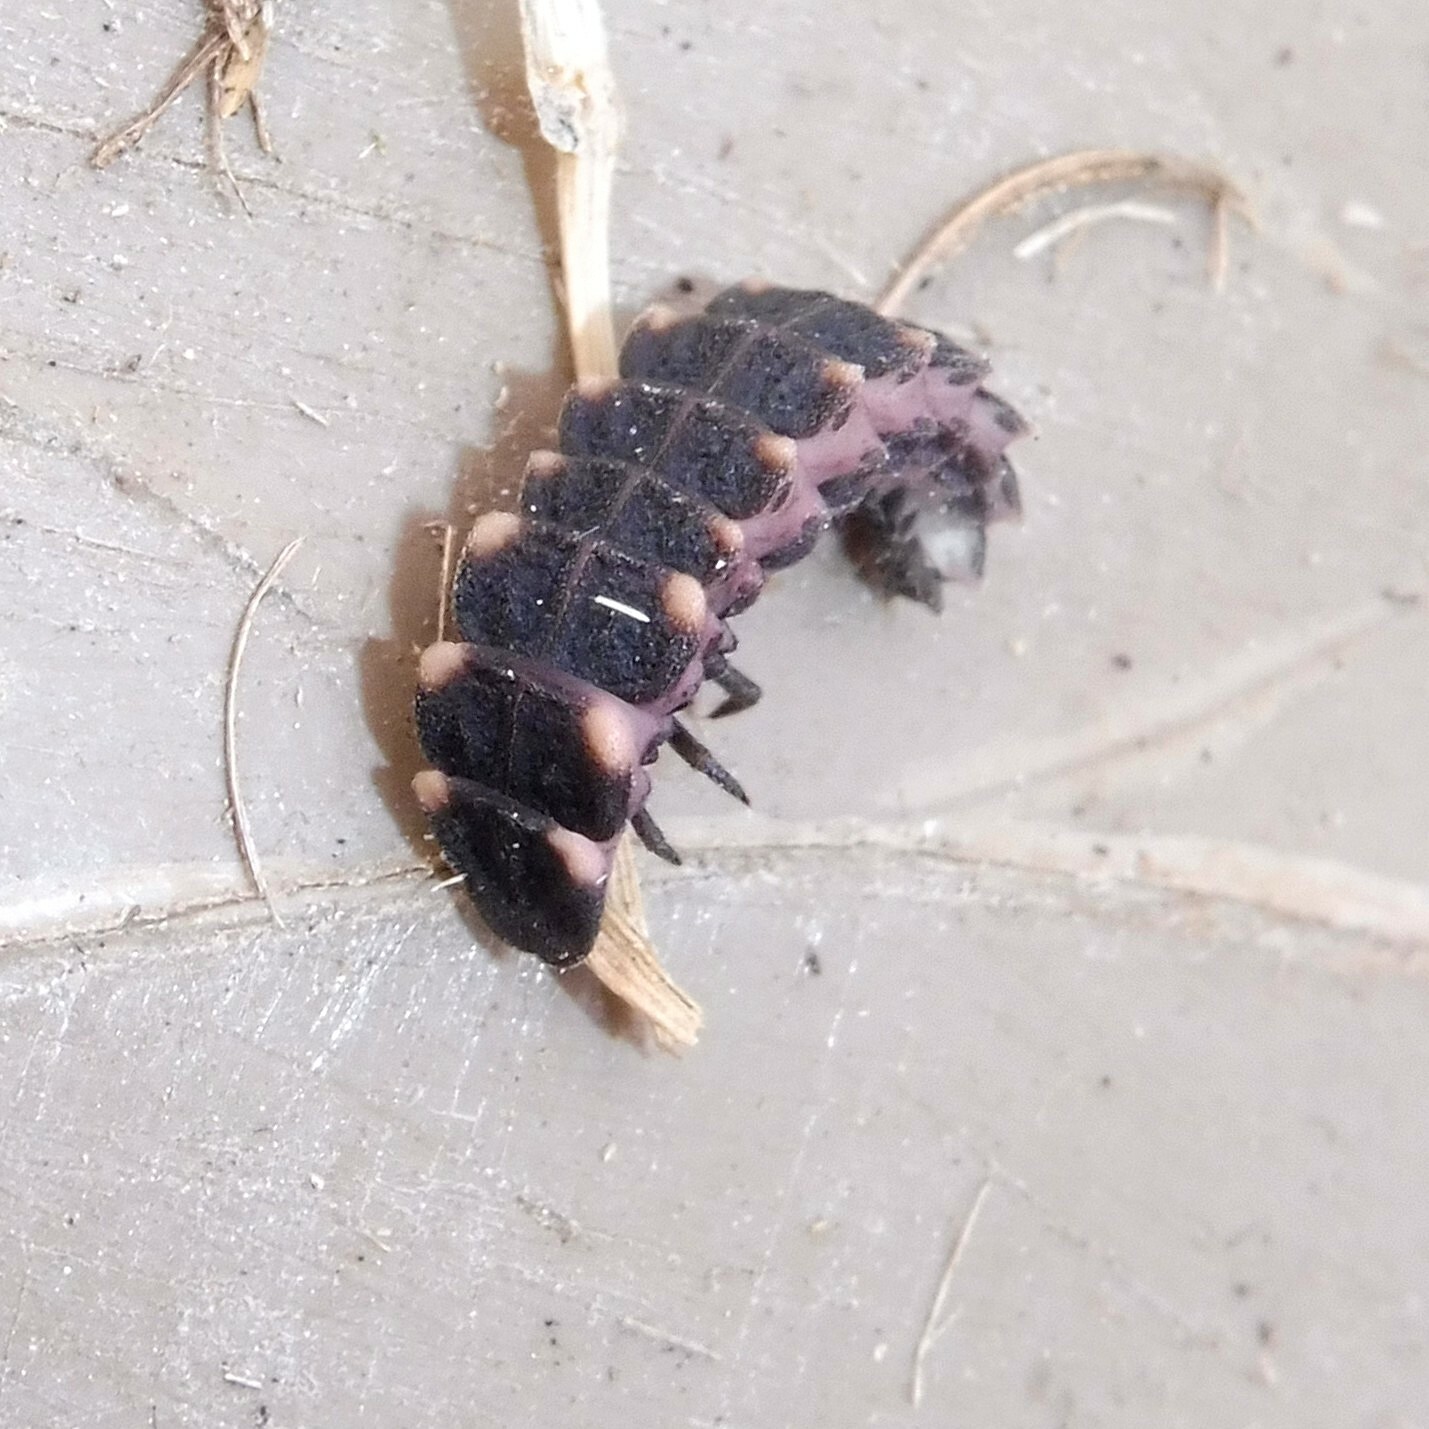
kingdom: Animalia
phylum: Arthropoda
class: Insecta
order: Coleoptera
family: Lampyridae
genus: Lampyris
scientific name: Lampyris noctiluca
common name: Glow-worm
